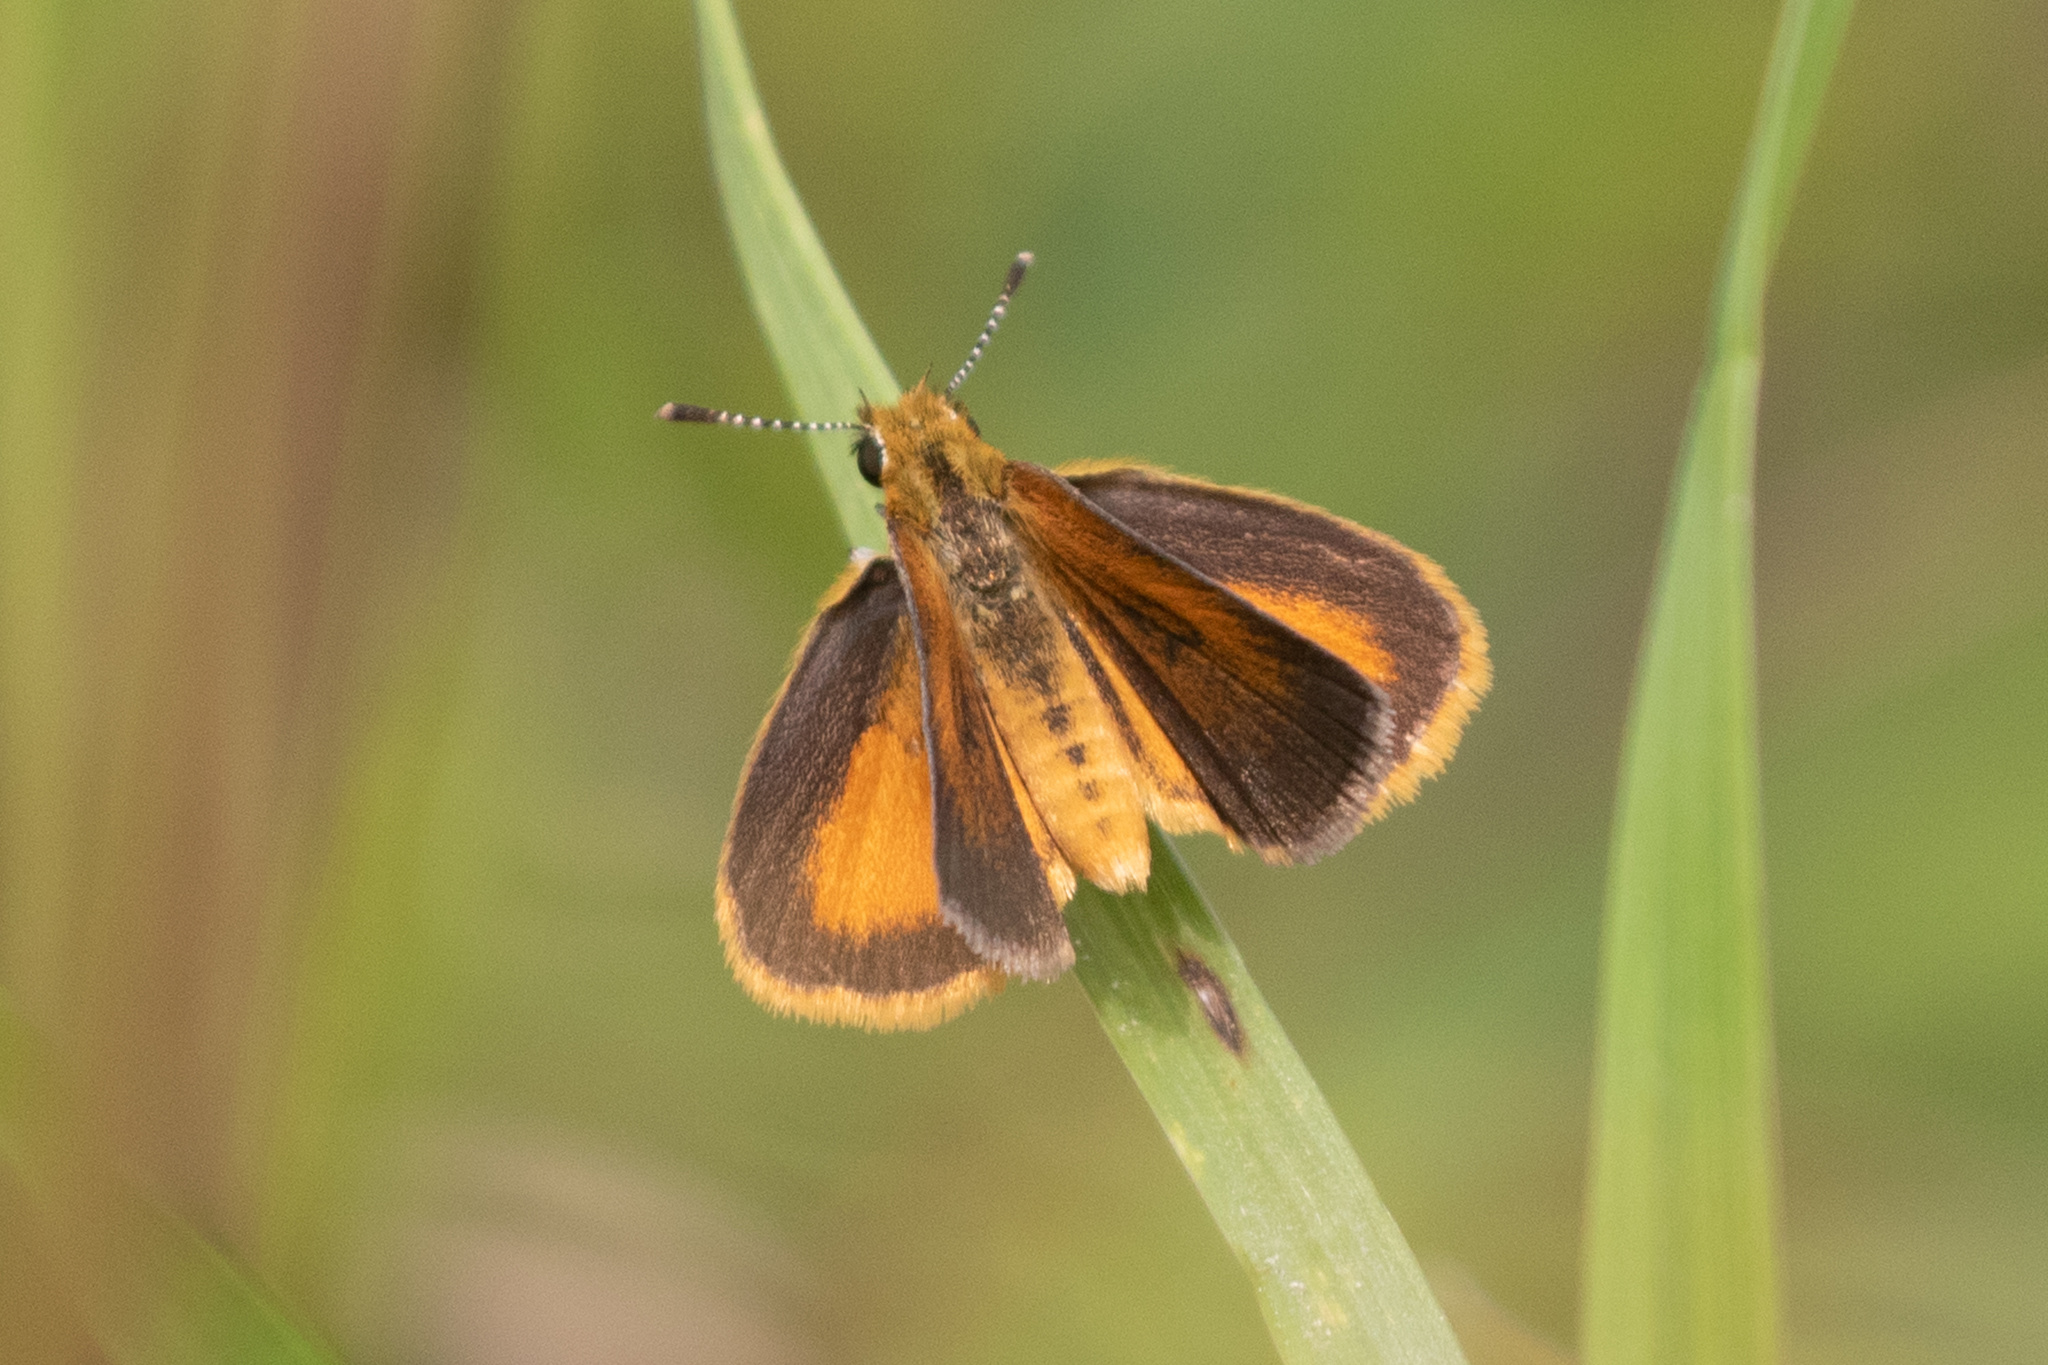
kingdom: Animalia
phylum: Arthropoda
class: Insecta
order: Lepidoptera
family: Hesperiidae
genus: Ancyloxypha
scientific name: Ancyloxypha numitor
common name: Least skipper
